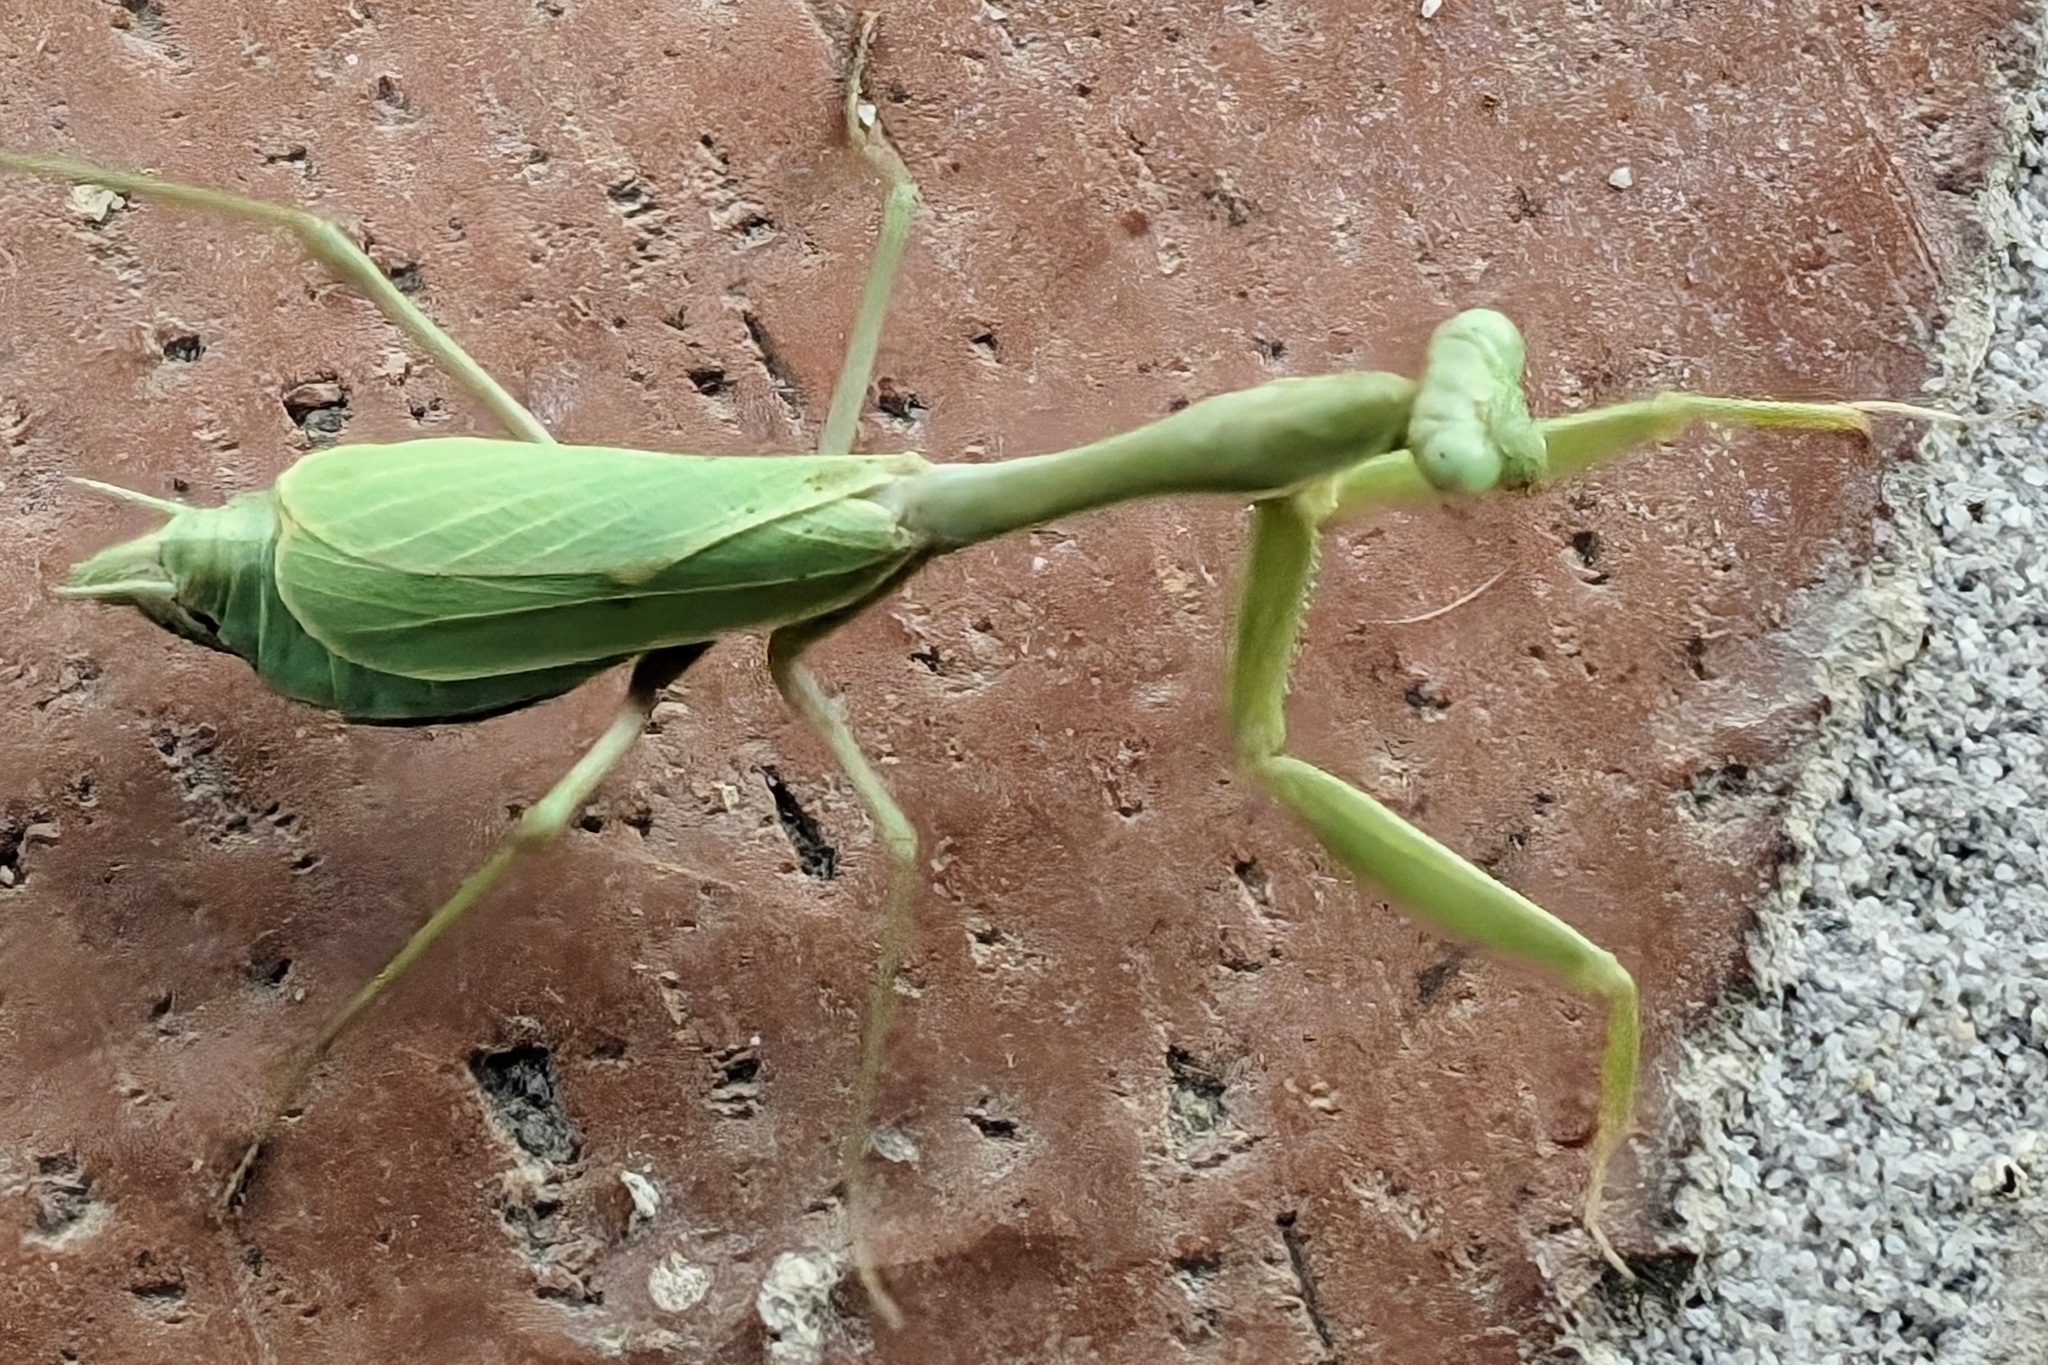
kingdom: Animalia
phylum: Arthropoda
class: Insecta
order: Mantodea
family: Mantidae
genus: Stagmomantis
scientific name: Stagmomantis limbata
